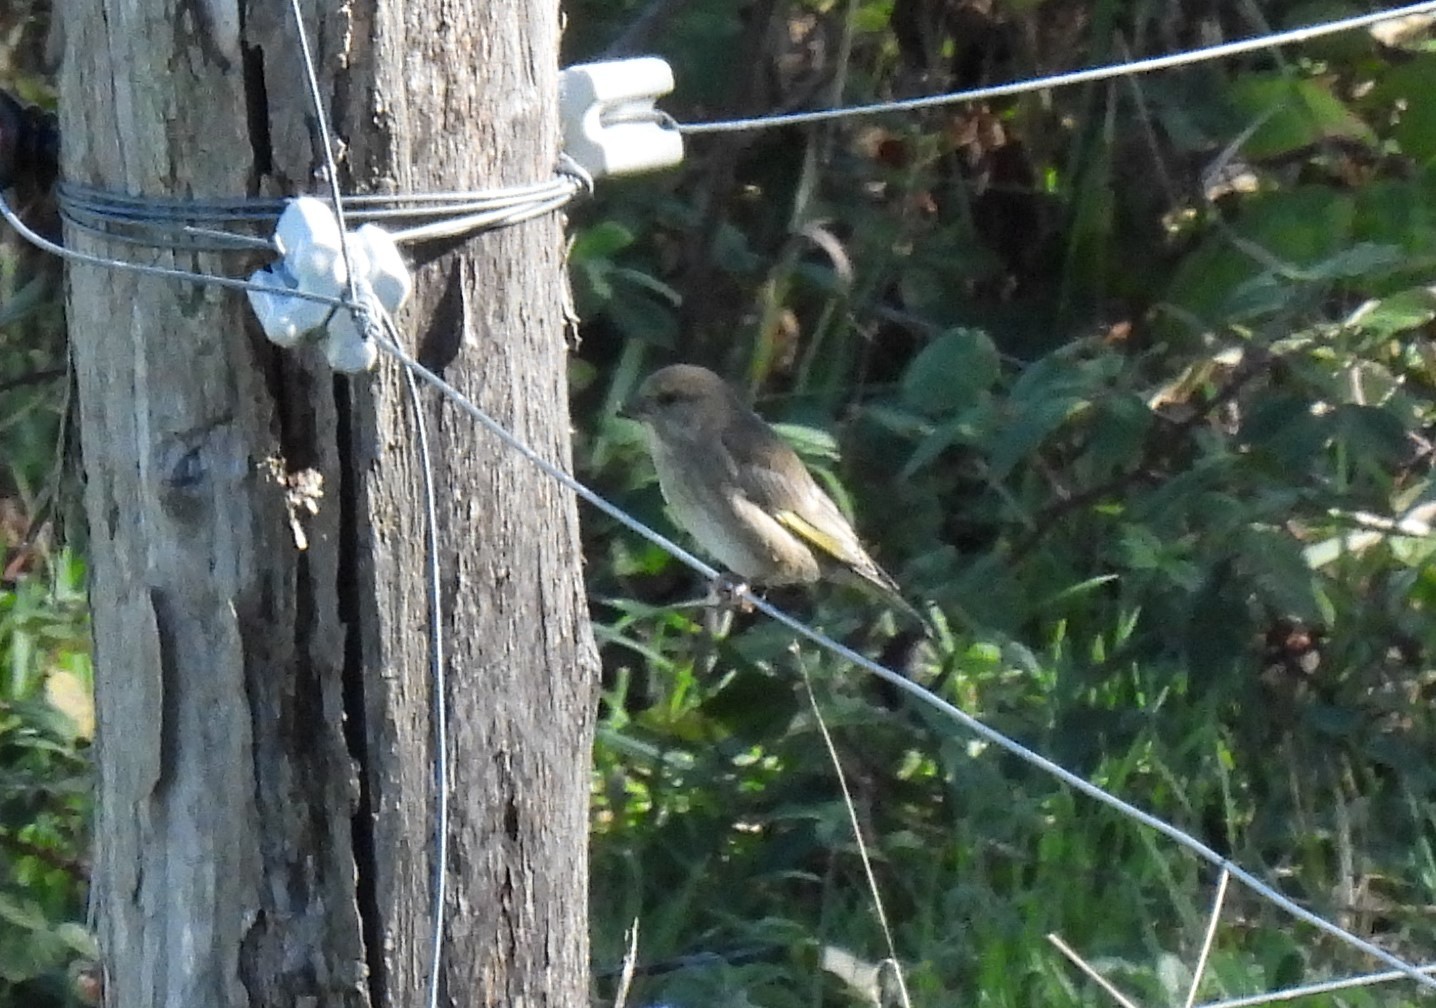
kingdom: Plantae
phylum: Tracheophyta
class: Liliopsida
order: Poales
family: Poaceae
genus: Chloris
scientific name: Chloris chloris
